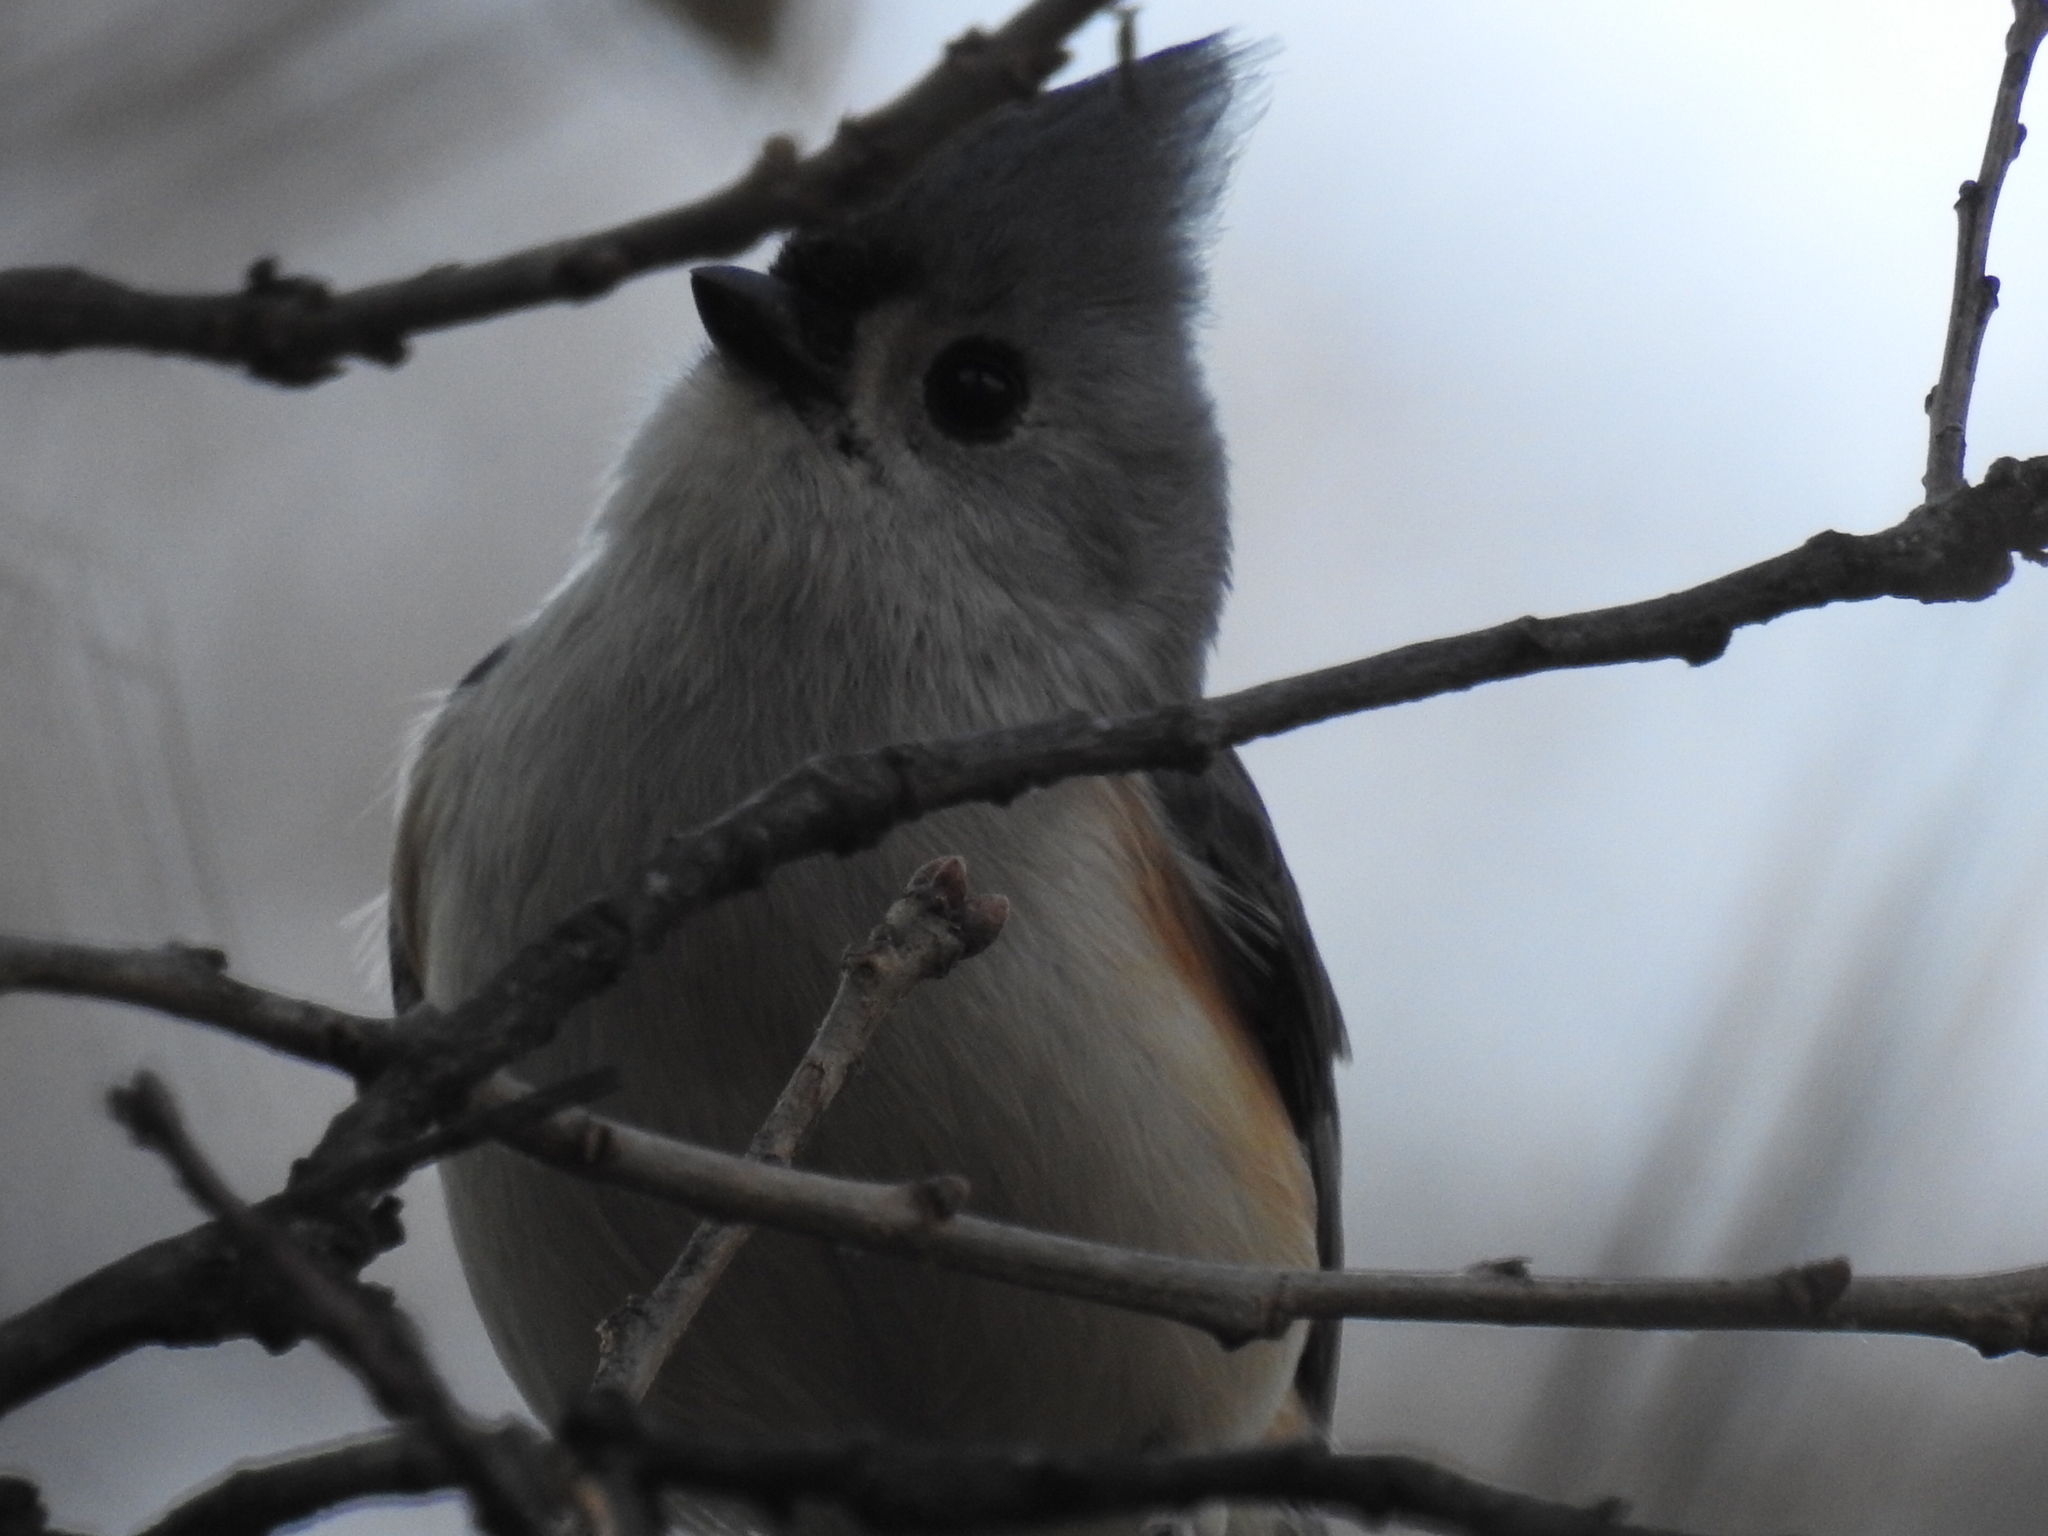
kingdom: Animalia
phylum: Chordata
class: Aves
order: Passeriformes
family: Paridae
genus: Baeolophus
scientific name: Baeolophus bicolor
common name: Tufted titmouse
